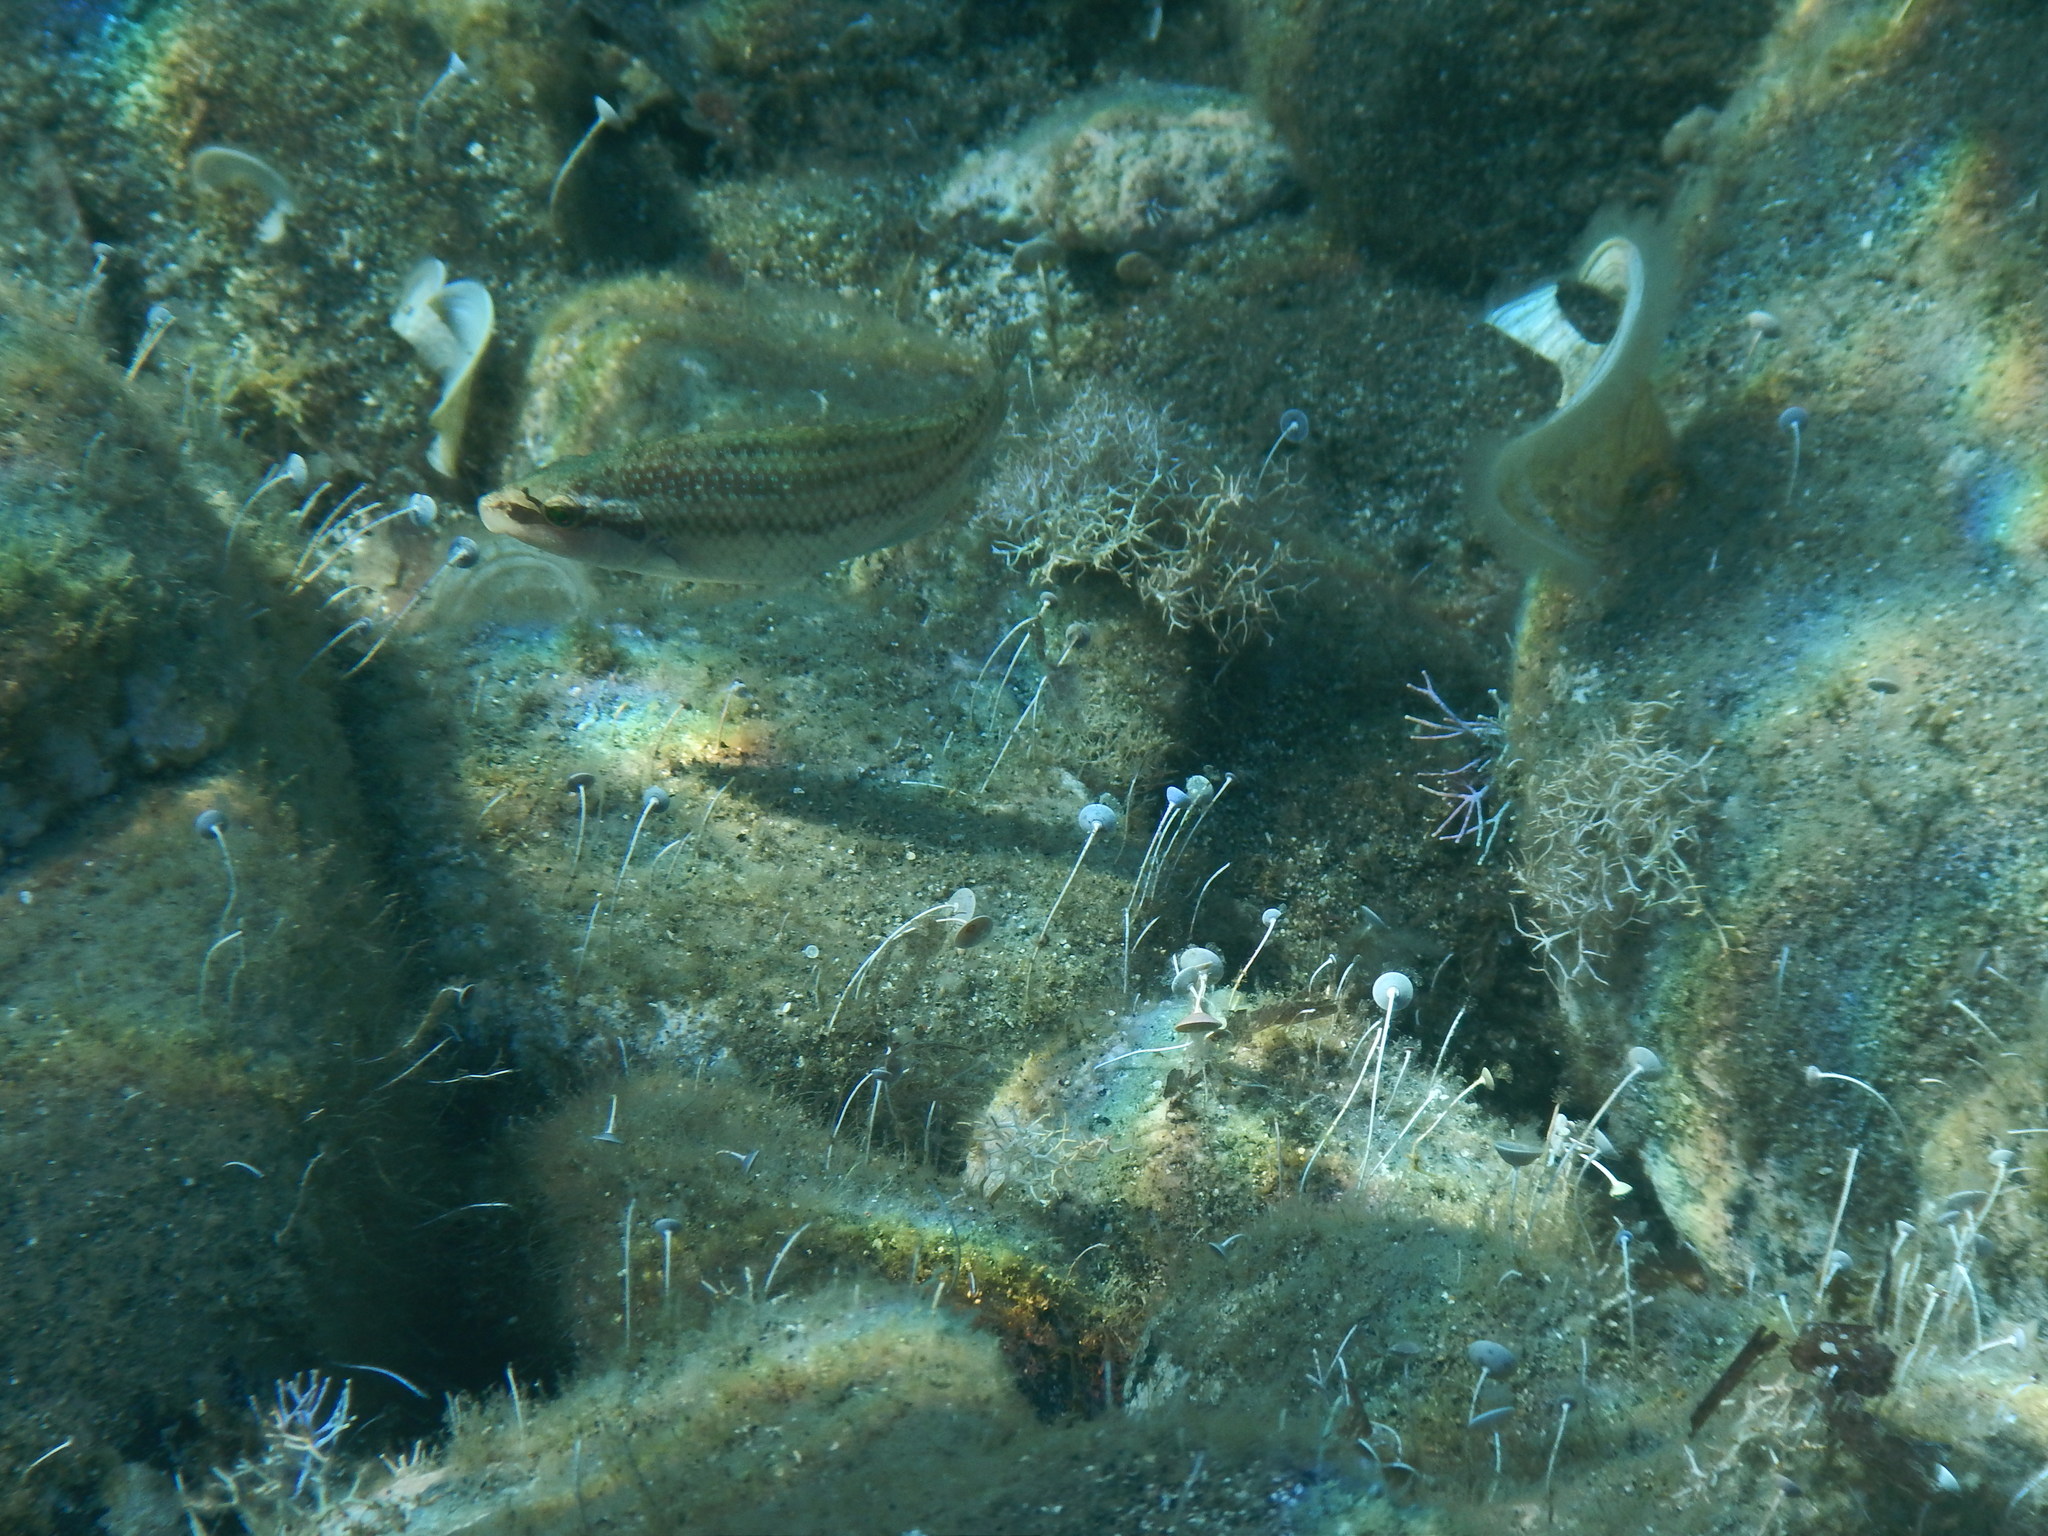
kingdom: Animalia
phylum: Chordata
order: Perciformes
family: Labridae
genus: Symphodus
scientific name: Symphodus tinca
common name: Peacock wrasse
